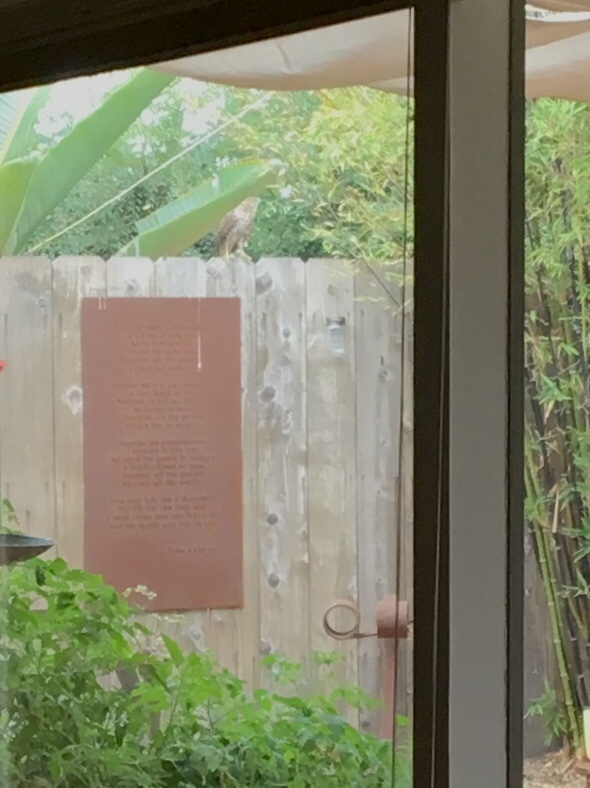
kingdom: Animalia
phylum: Chordata
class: Aves
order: Accipitriformes
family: Accipitridae
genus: Accipiter
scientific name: Accipiter cooperii
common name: Cooper's hawk
